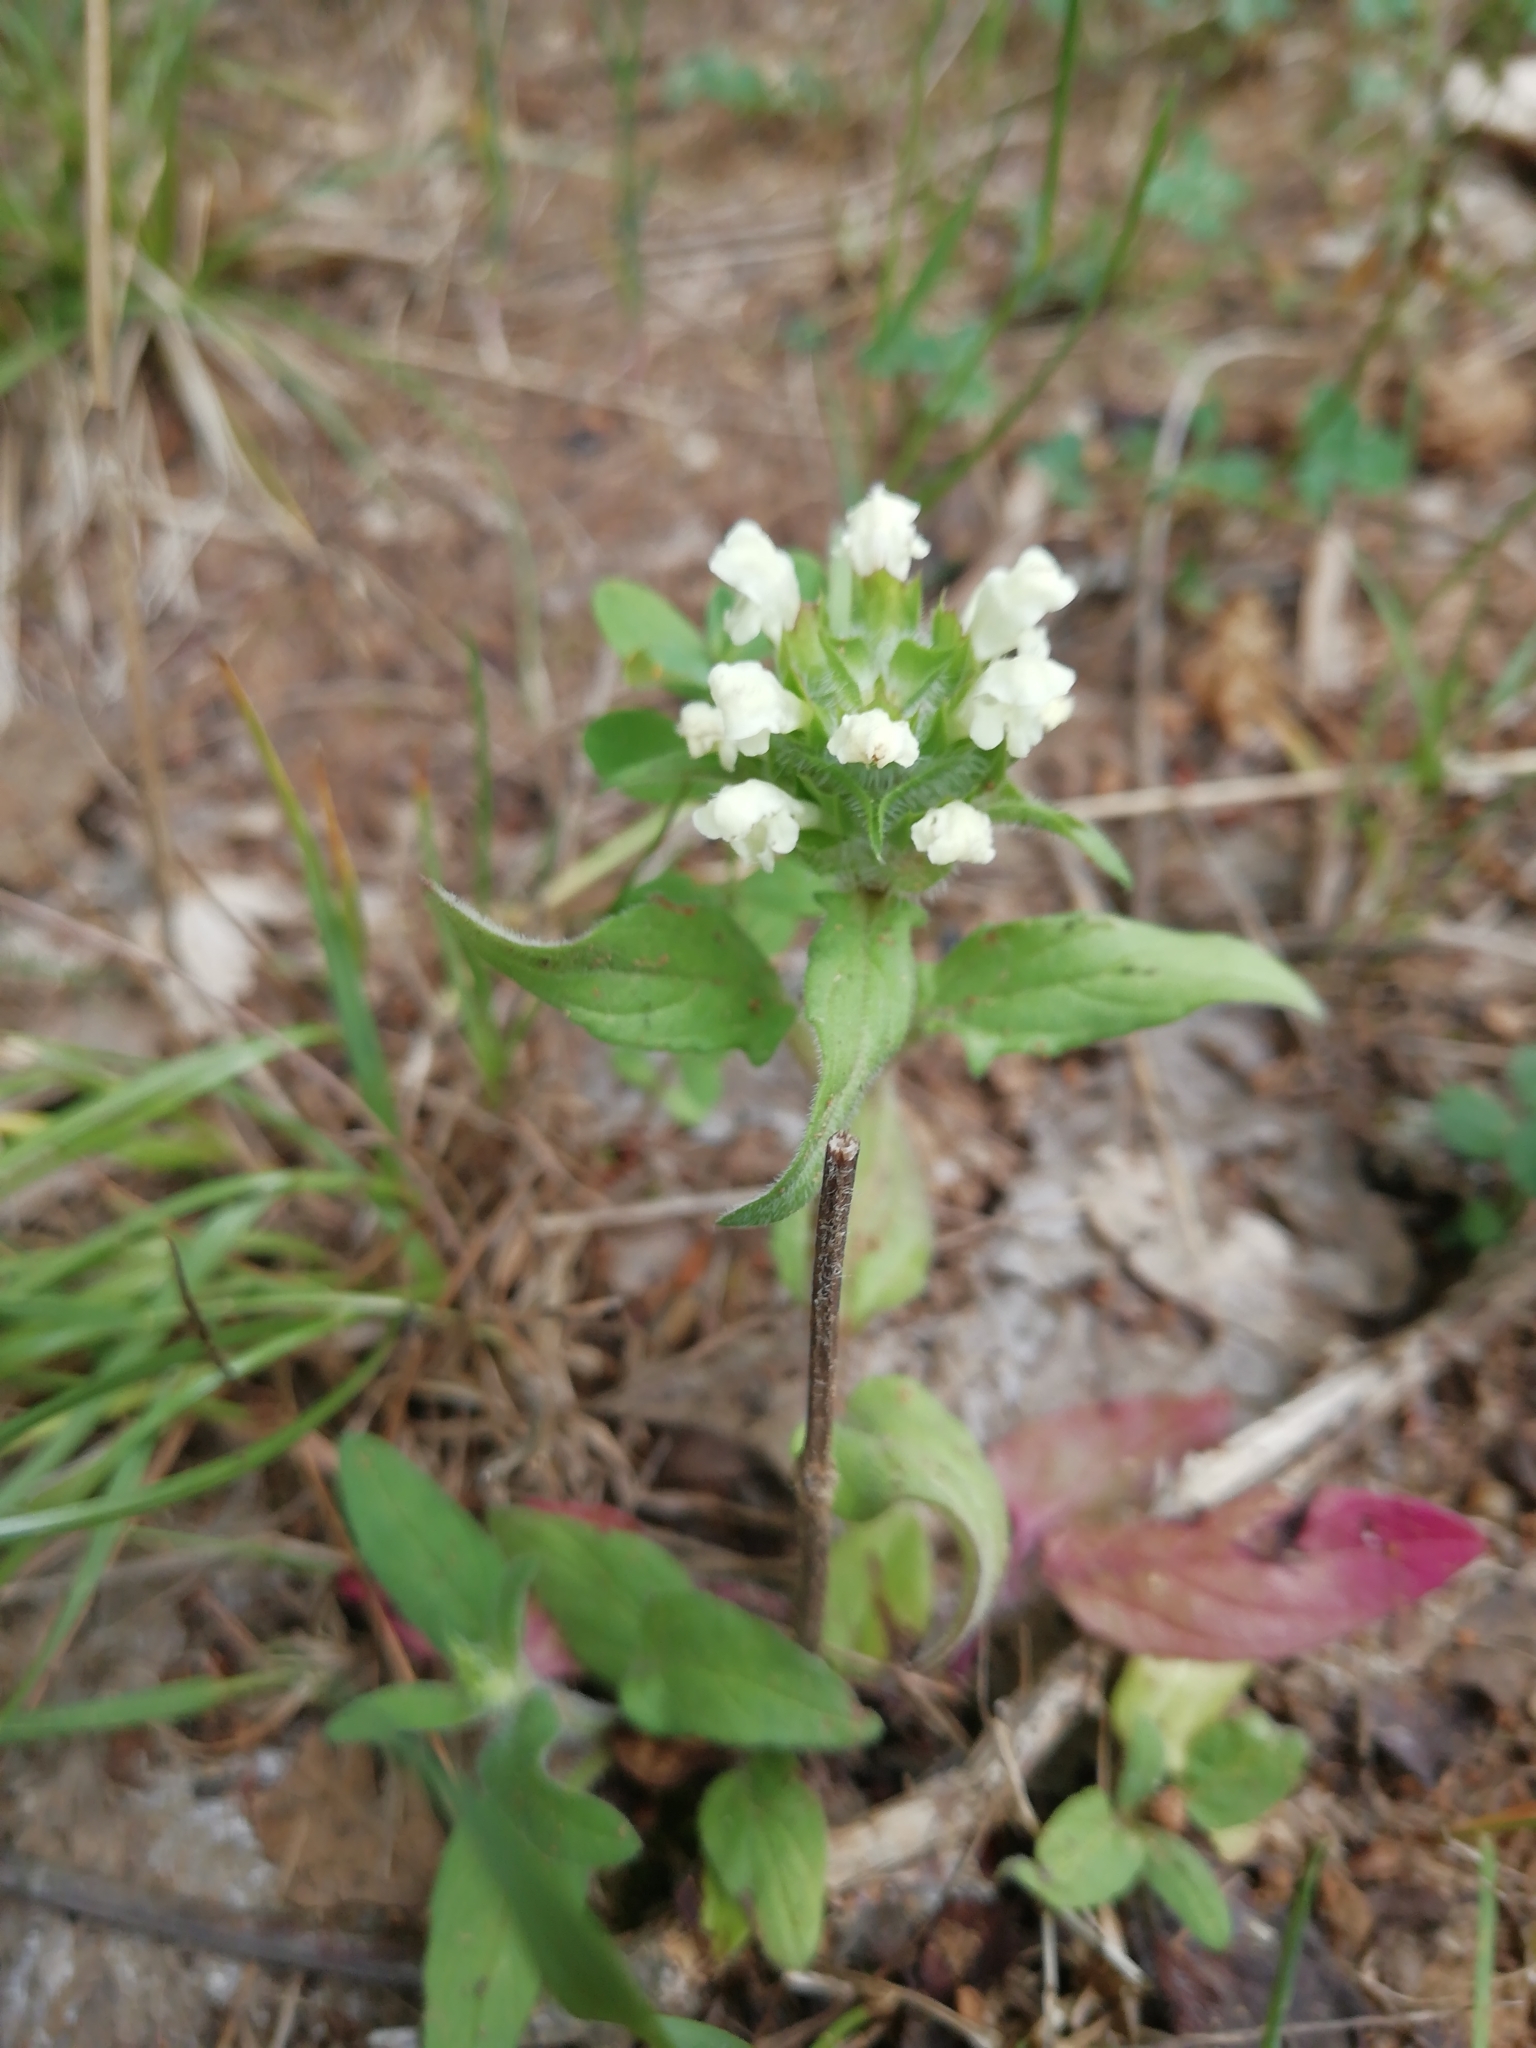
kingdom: Plantae
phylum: Tracheophyta
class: Magnoliopsida
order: Lamiales
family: Lamiaceae
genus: Prunella
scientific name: Prunella laciniata
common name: Cut-leaved selfheal
